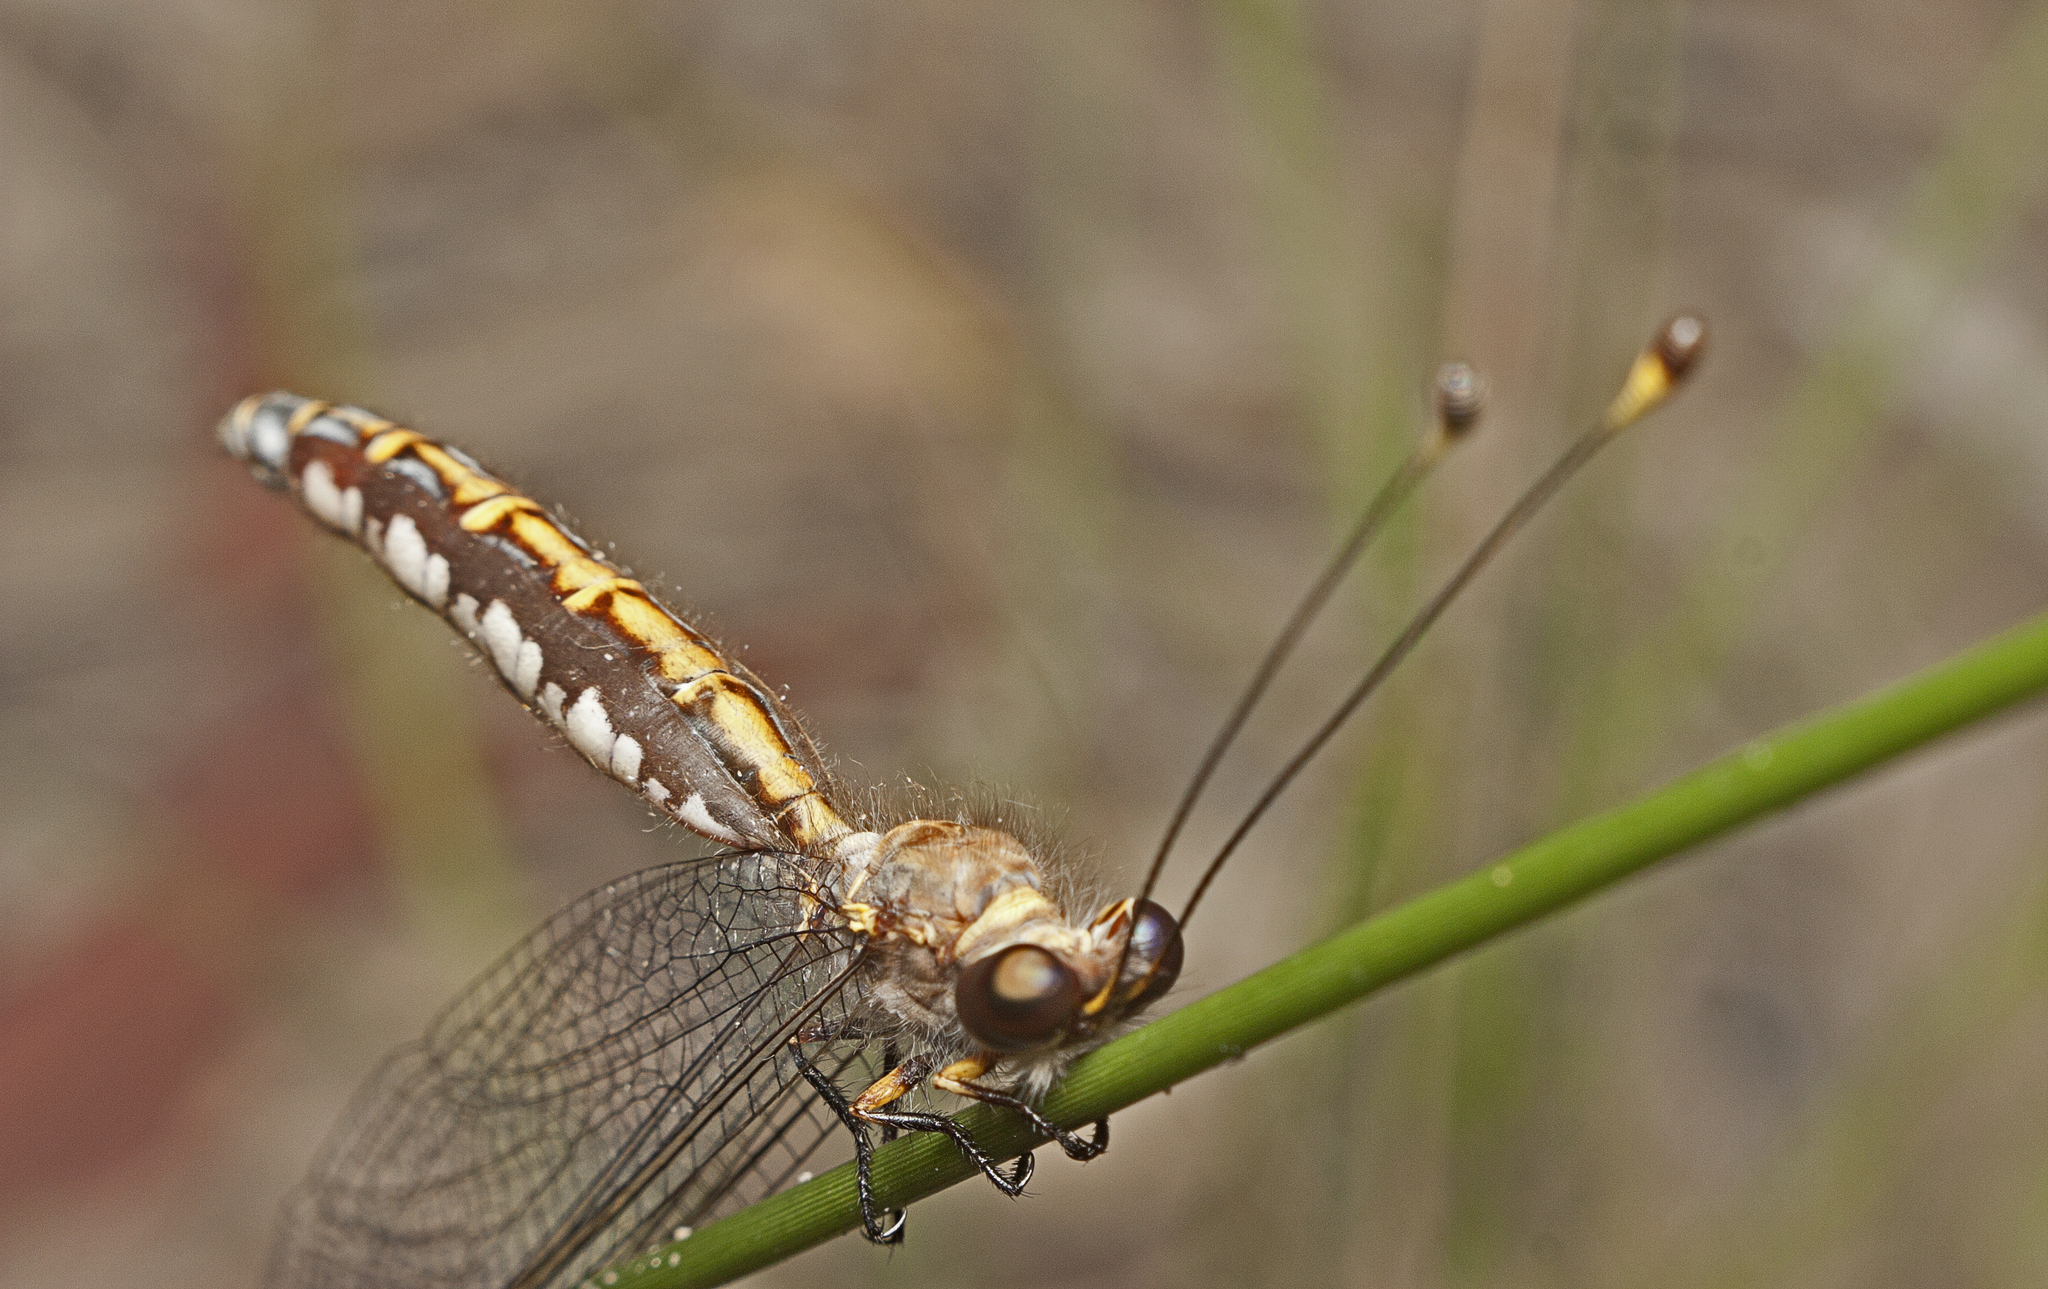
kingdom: Animalia
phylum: Arthropoda
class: Insecta
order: Neuroptera
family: Ascalaphidae
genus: Suhpalacsa
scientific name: Suhpalacsa subtrahens
